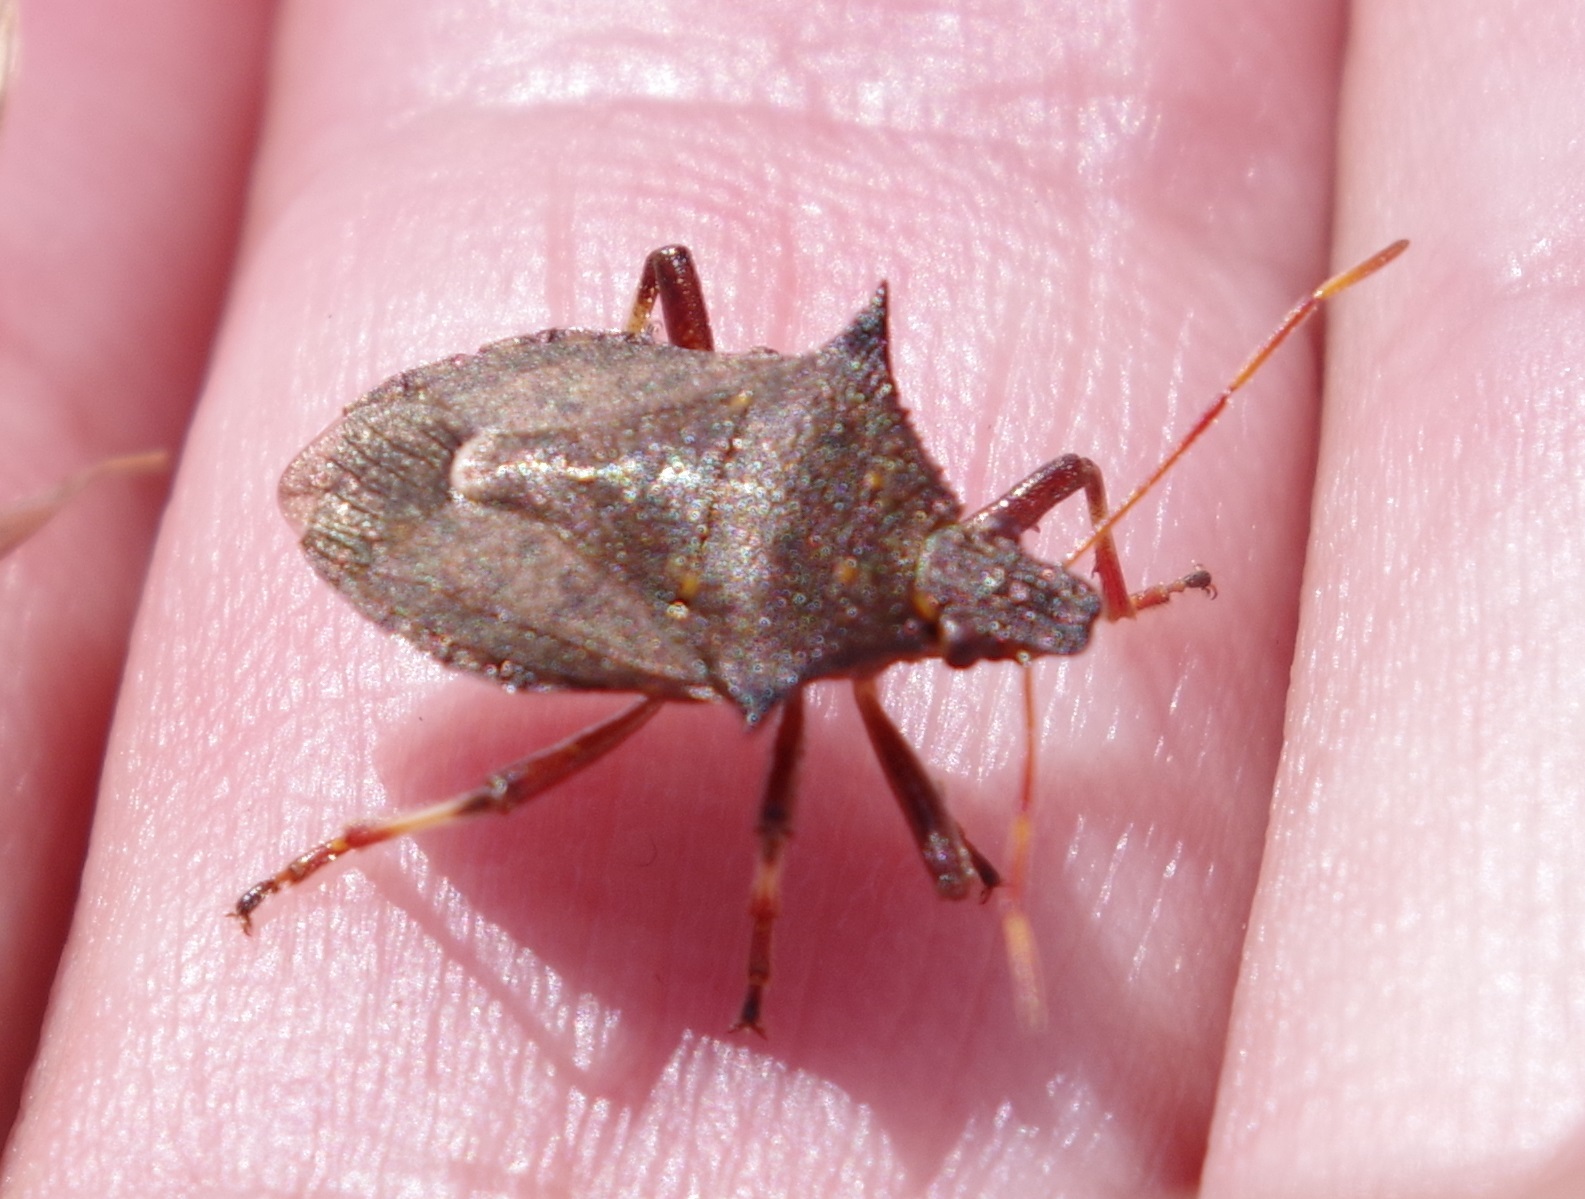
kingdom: Animalia
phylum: Arthropoda
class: Insecta
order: Hemiptera
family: Pentatomidae
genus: Picromerus
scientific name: Picromerus bidens
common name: Spiked shieldbug
